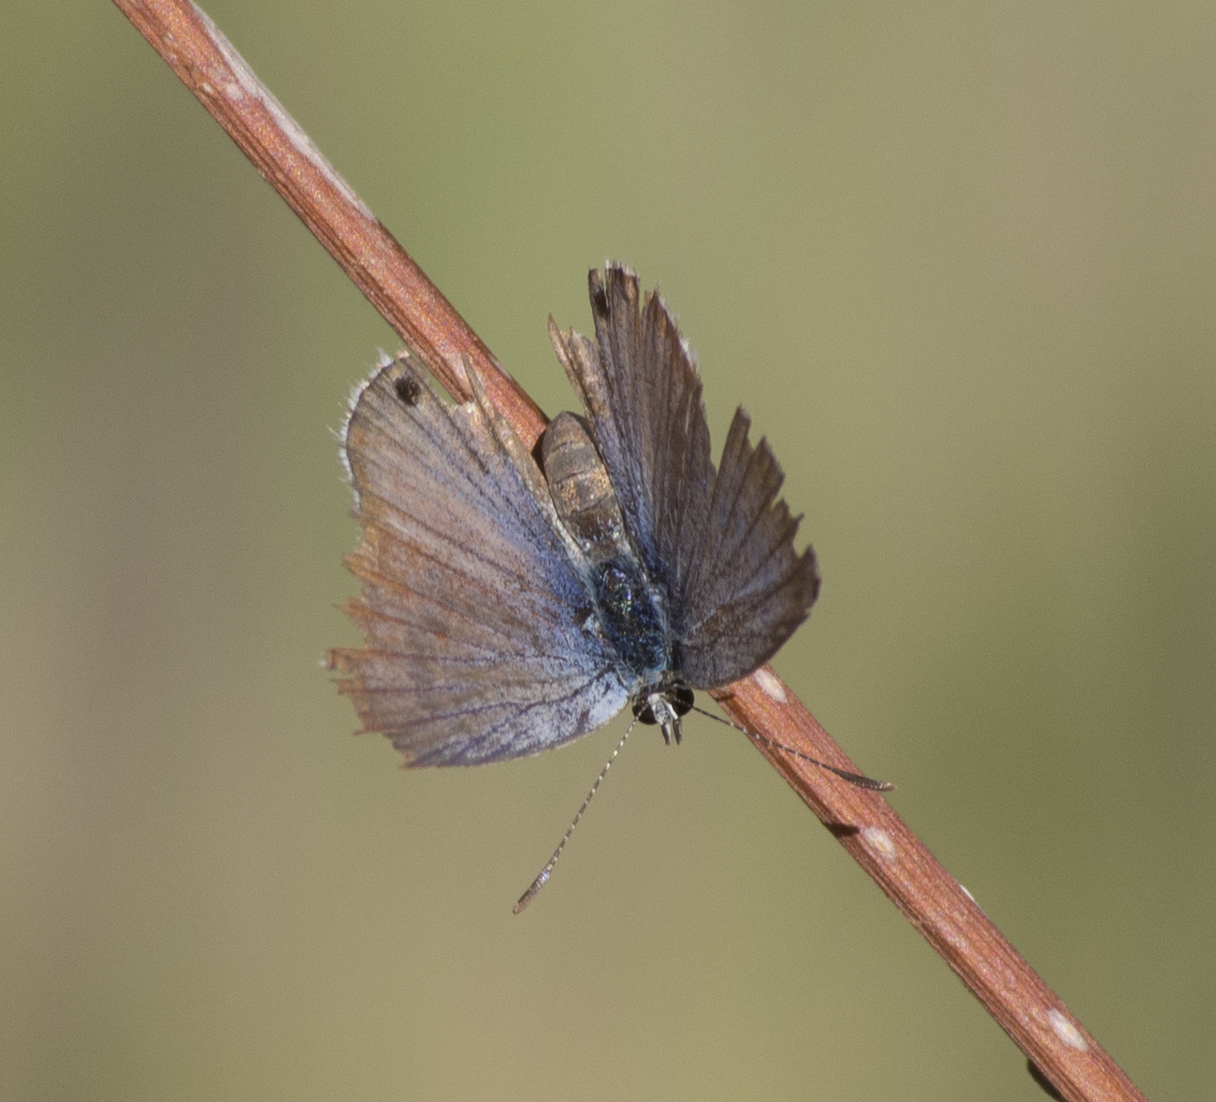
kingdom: Animalia
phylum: Arthropoda
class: Insecta
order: Lepidoptera
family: Lycaenidae
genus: Echinargus
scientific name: Echinargus isola
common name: Reakirt's blue
